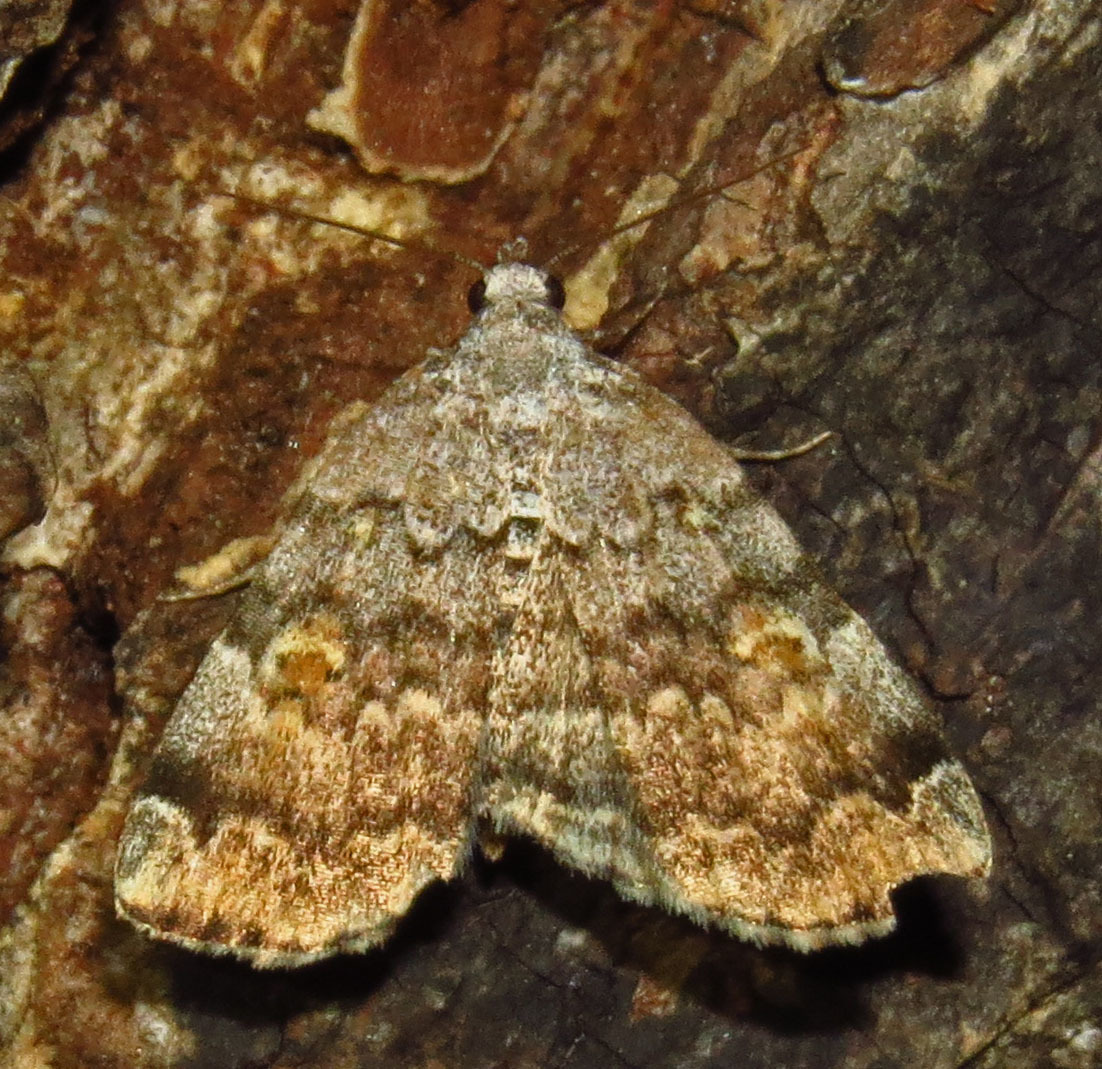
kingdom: Animalia
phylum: Arthropoda
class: Insecta
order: Lepidoptera
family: Erebidae
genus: Idia
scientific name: Idia americalis
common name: American idia moth
